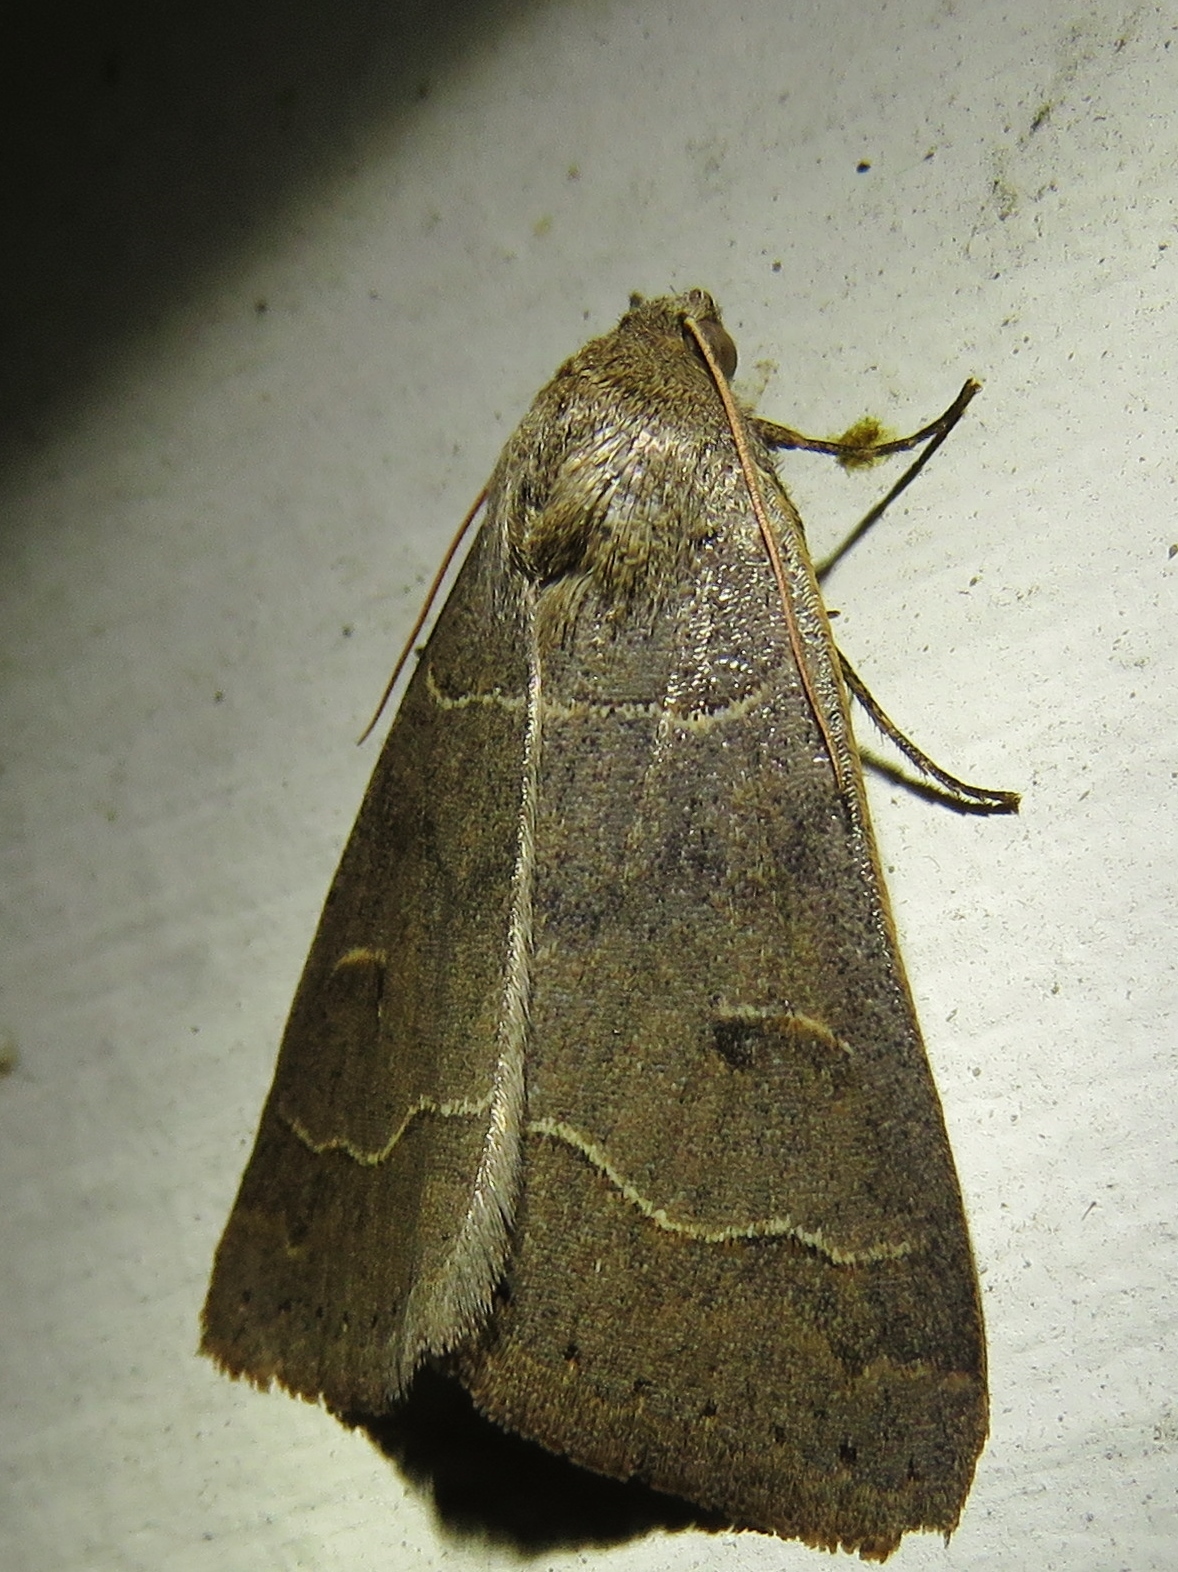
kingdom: Animalia
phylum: Arthropoda
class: Insecta
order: Lepidoptera
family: Erebidae
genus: Phoberia
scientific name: Phoberia atomaris
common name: Common oak moth
